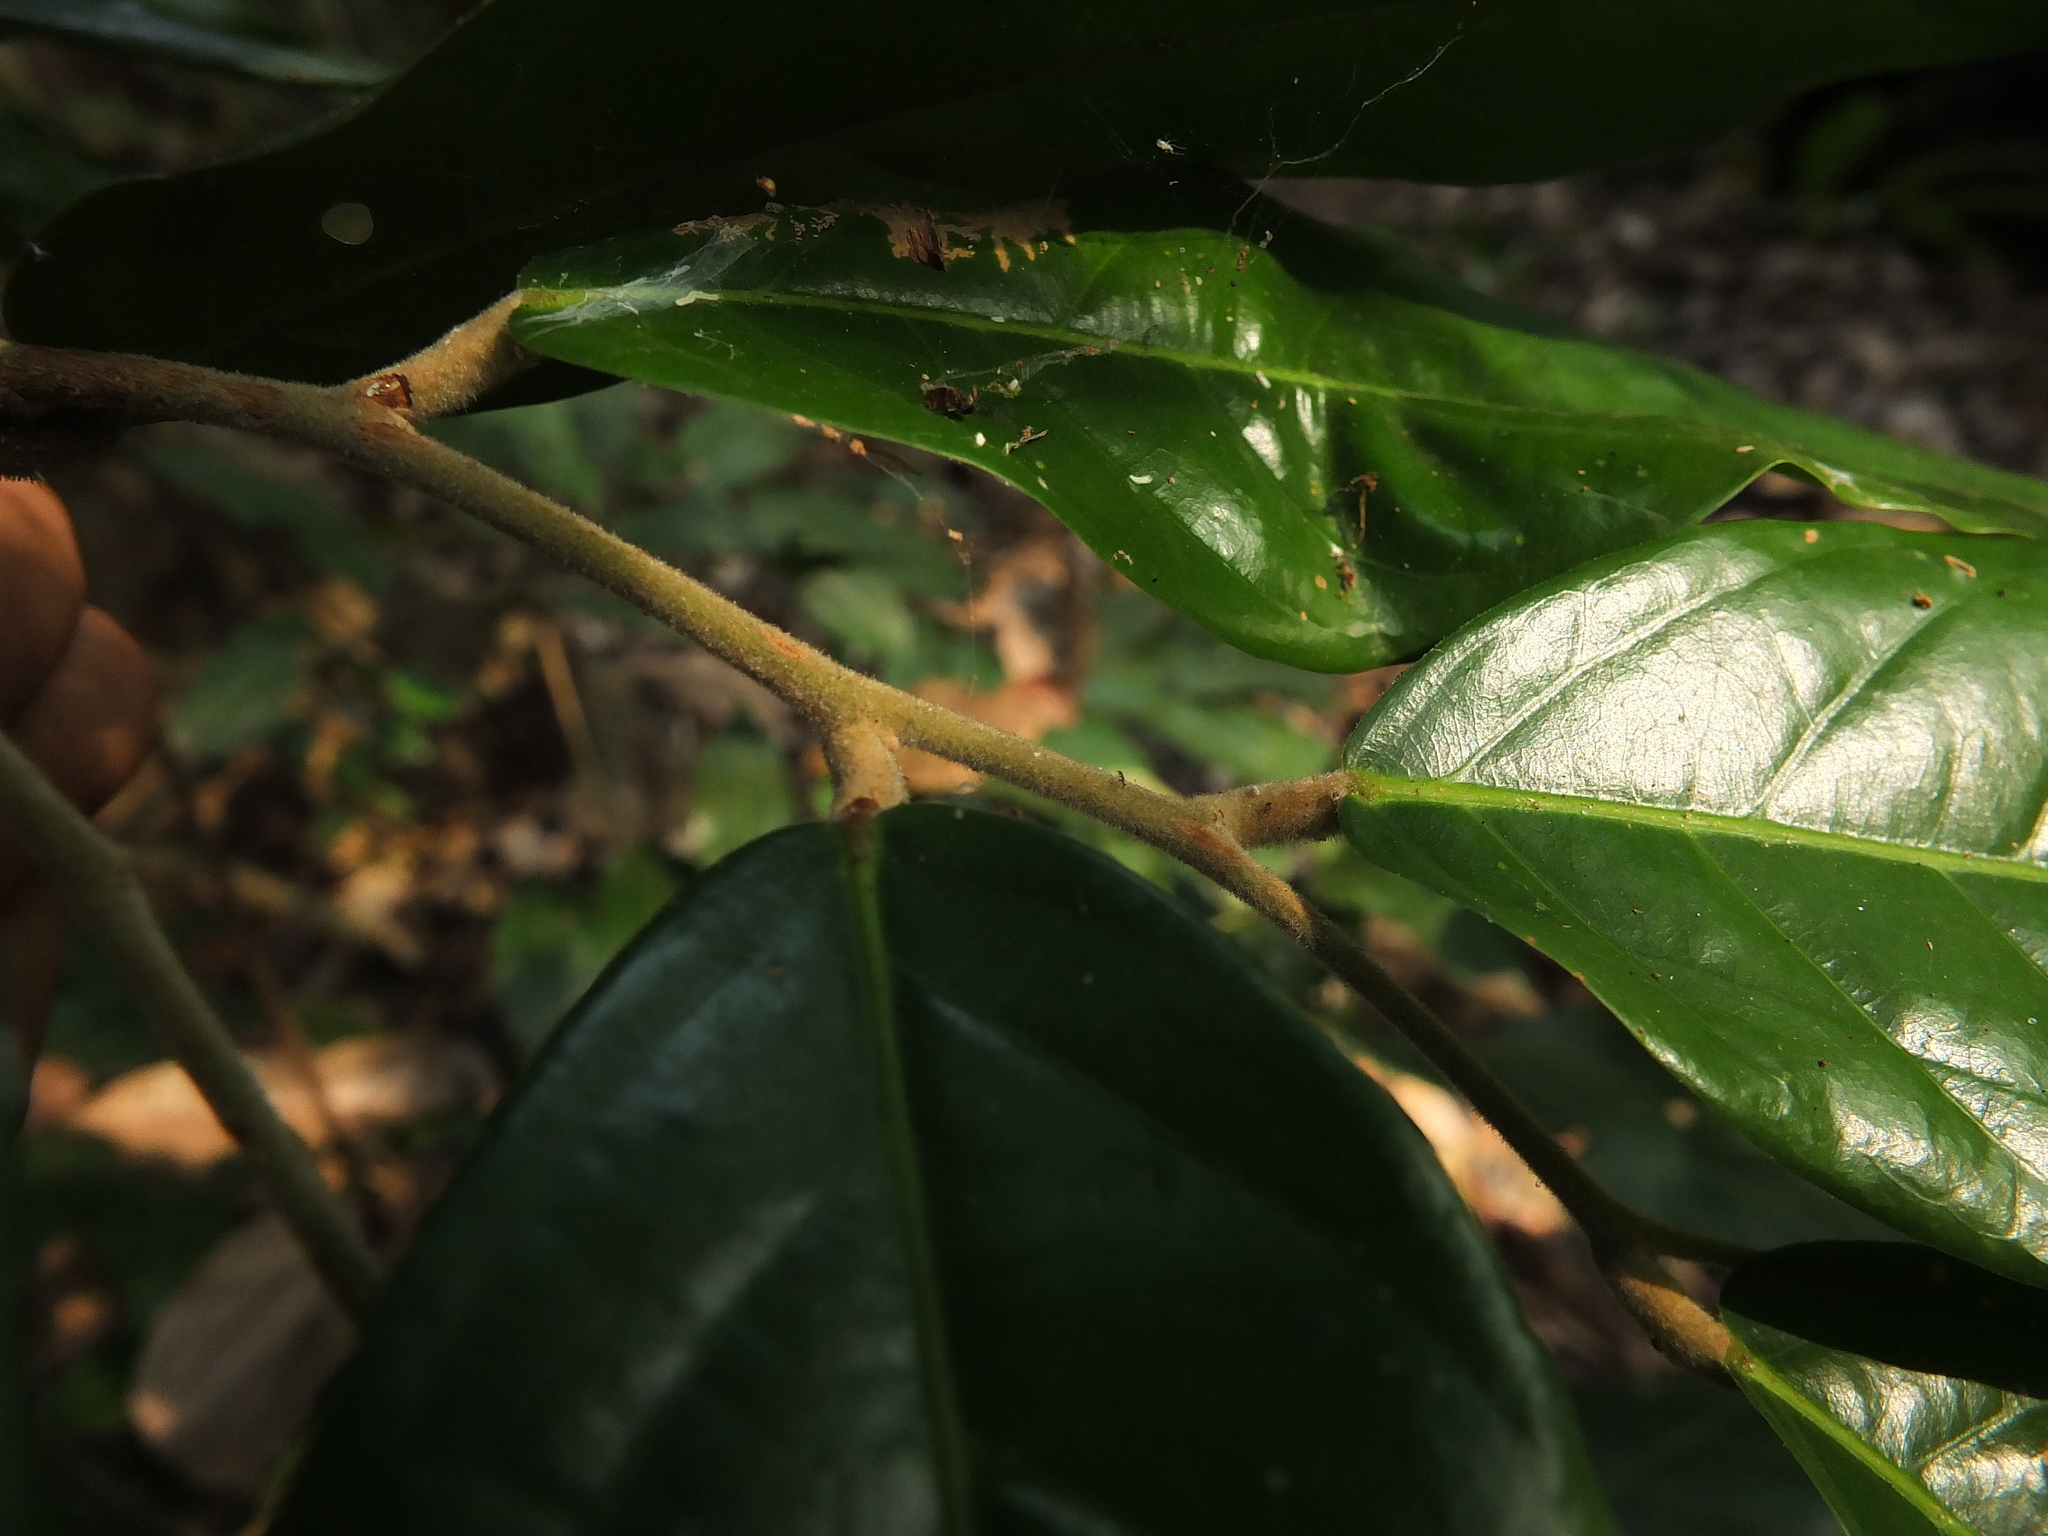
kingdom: Plantae
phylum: Tracheophyta
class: Magnoliopsida
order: Malvales
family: Dipterocarpaceae
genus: Hopea
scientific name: Hopea ponga
